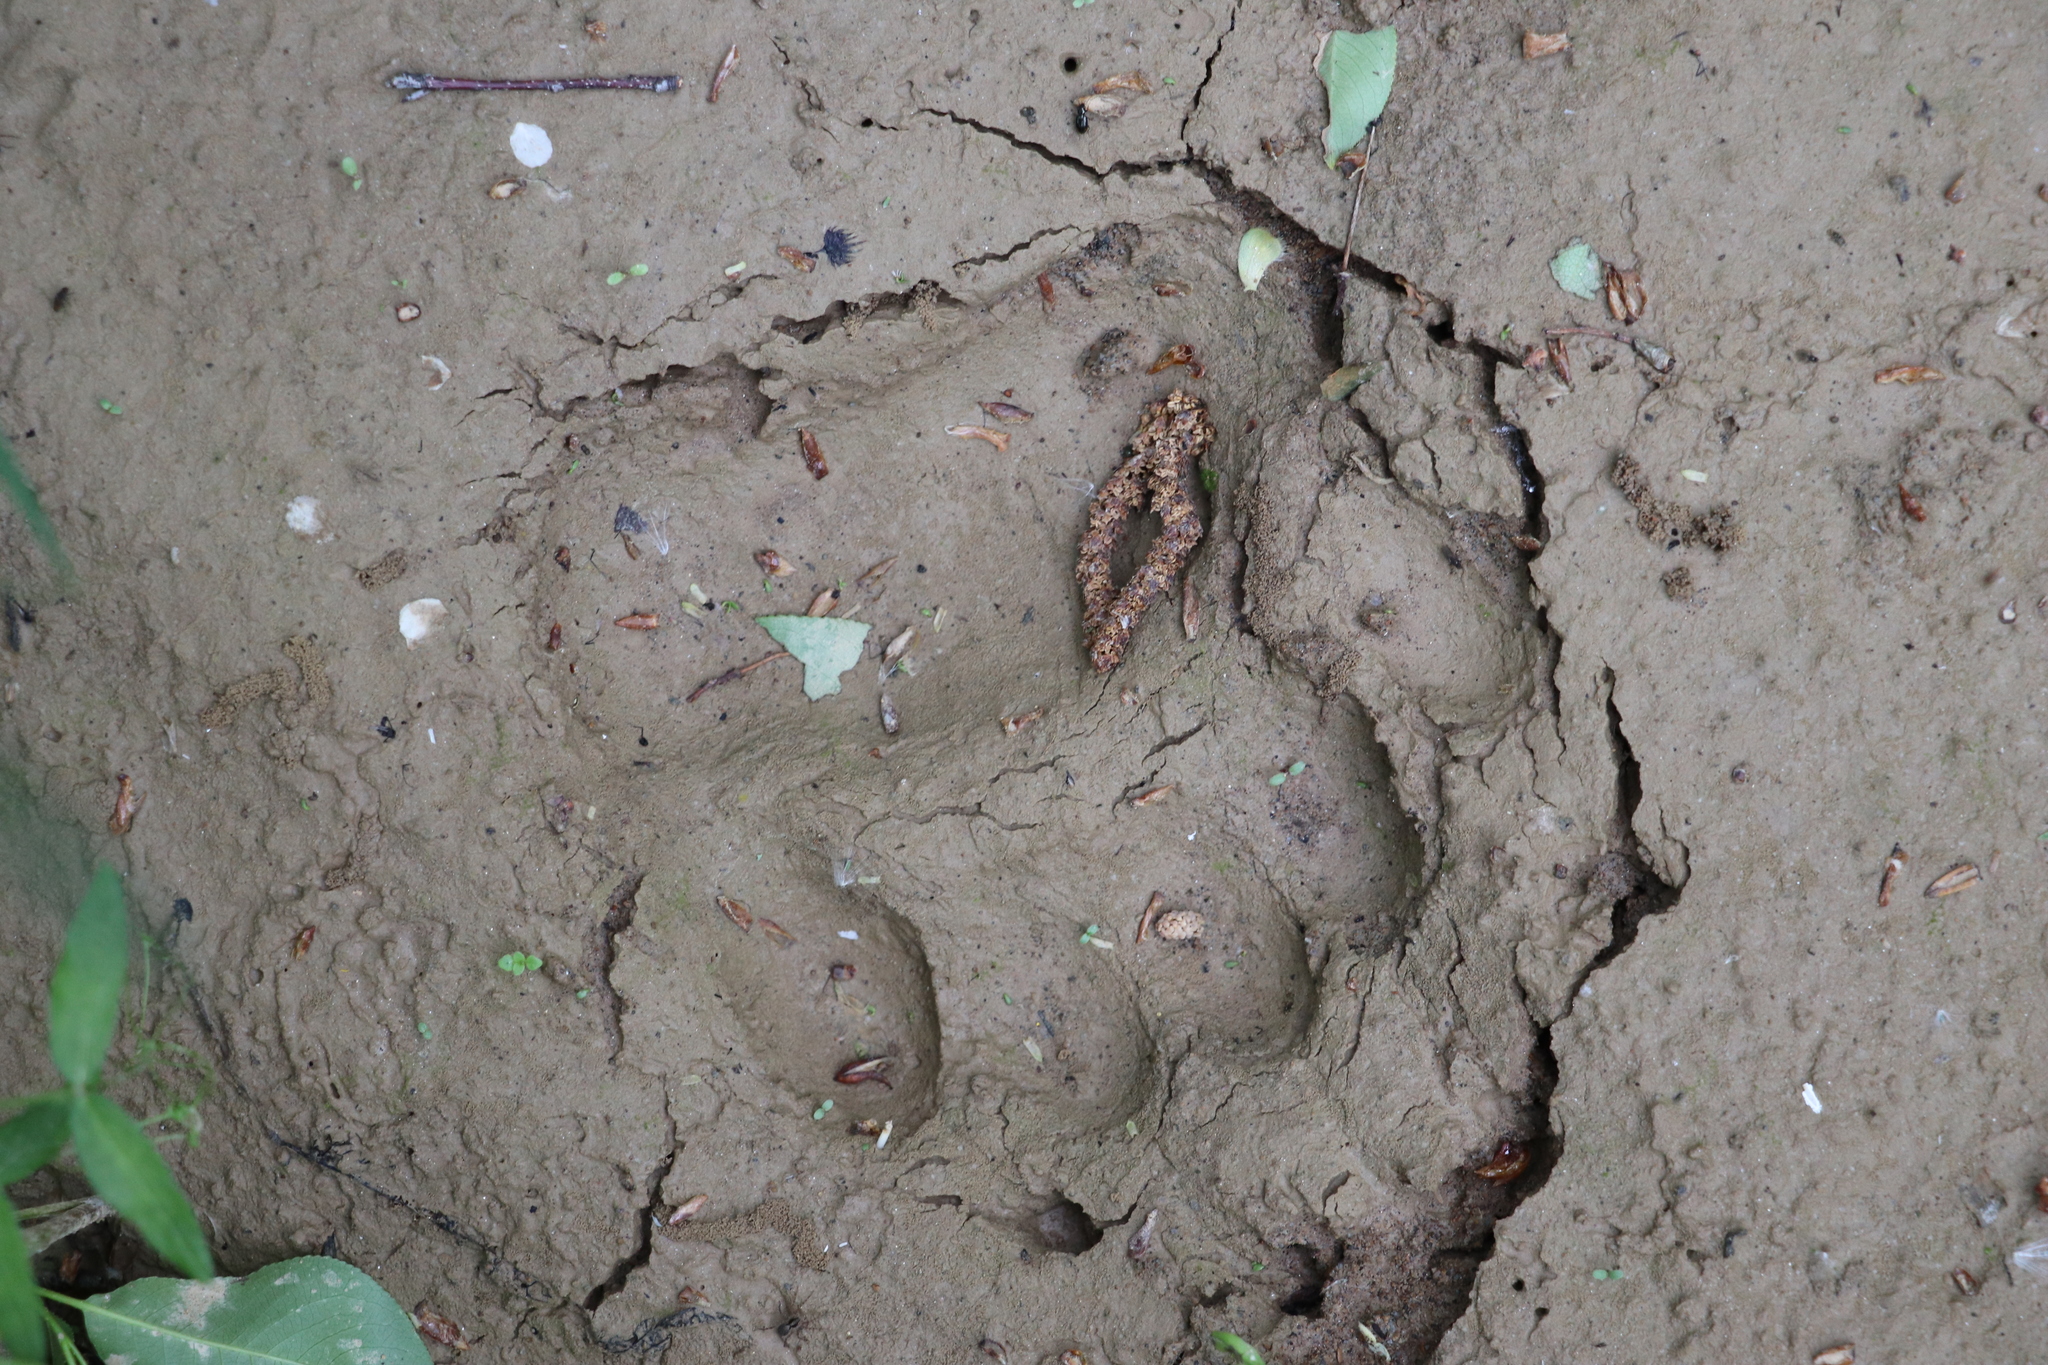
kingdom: Animalia
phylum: Chordata
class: Mammalia
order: Carnivora
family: Ursidae
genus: Ursus
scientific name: Ursus arctos
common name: Brown bear
